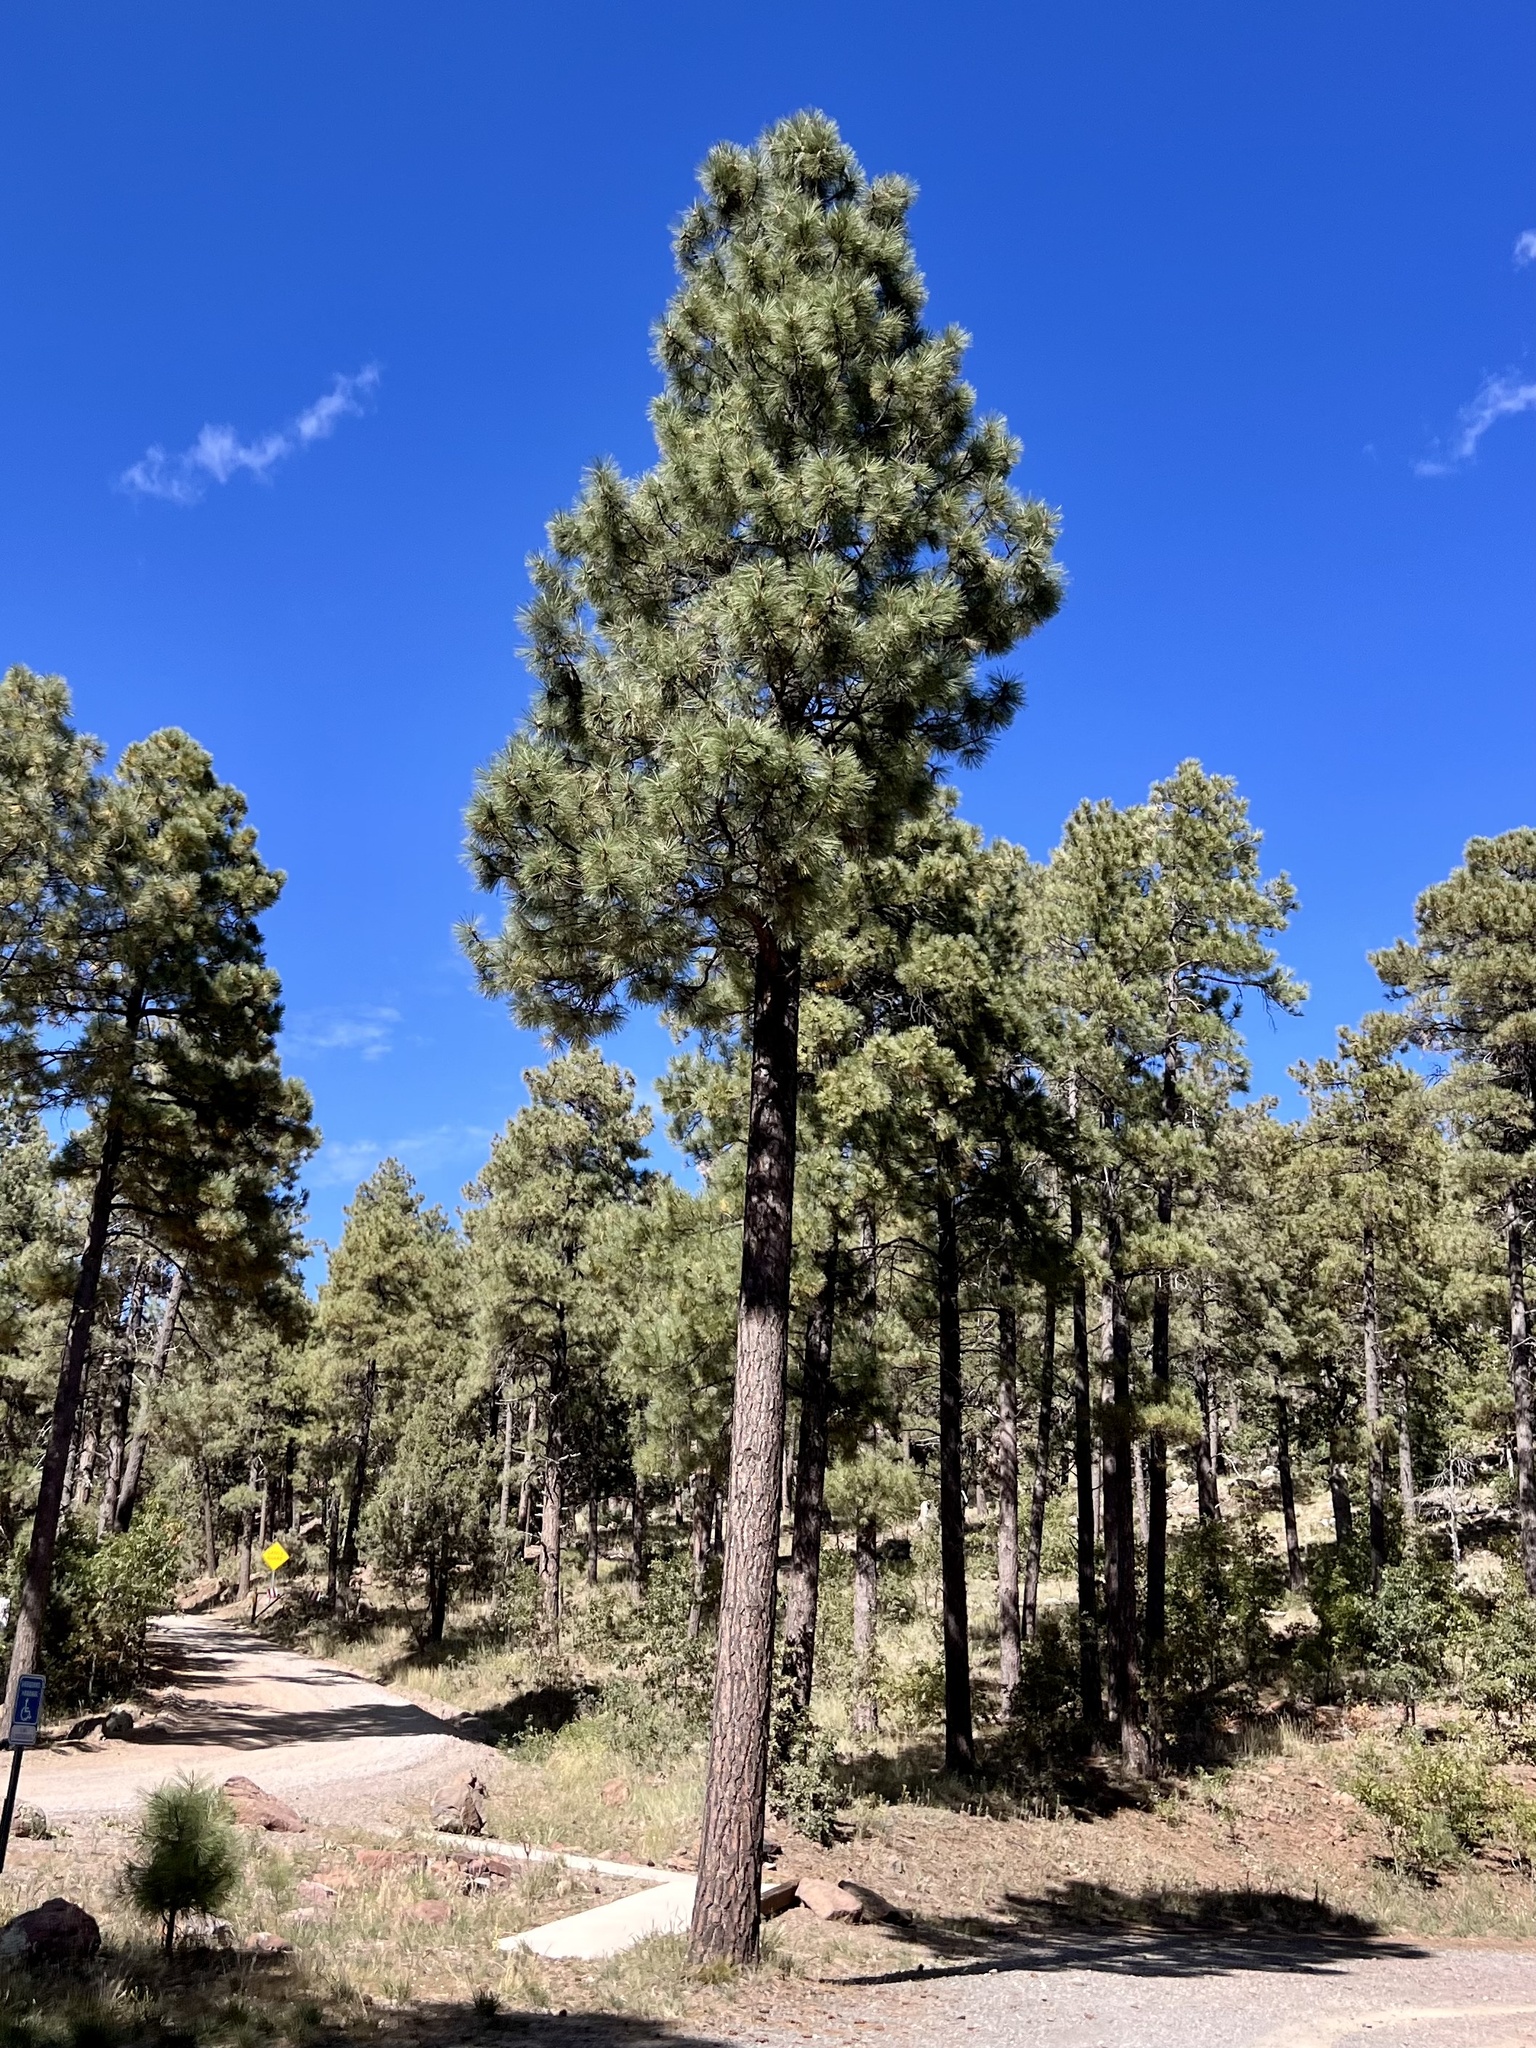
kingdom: Plantae
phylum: Tracheophyta
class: Pinopsida
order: Pinales
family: Pinaceae
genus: Pinus
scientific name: Pinus ponderosa
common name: Western yellow-pine
